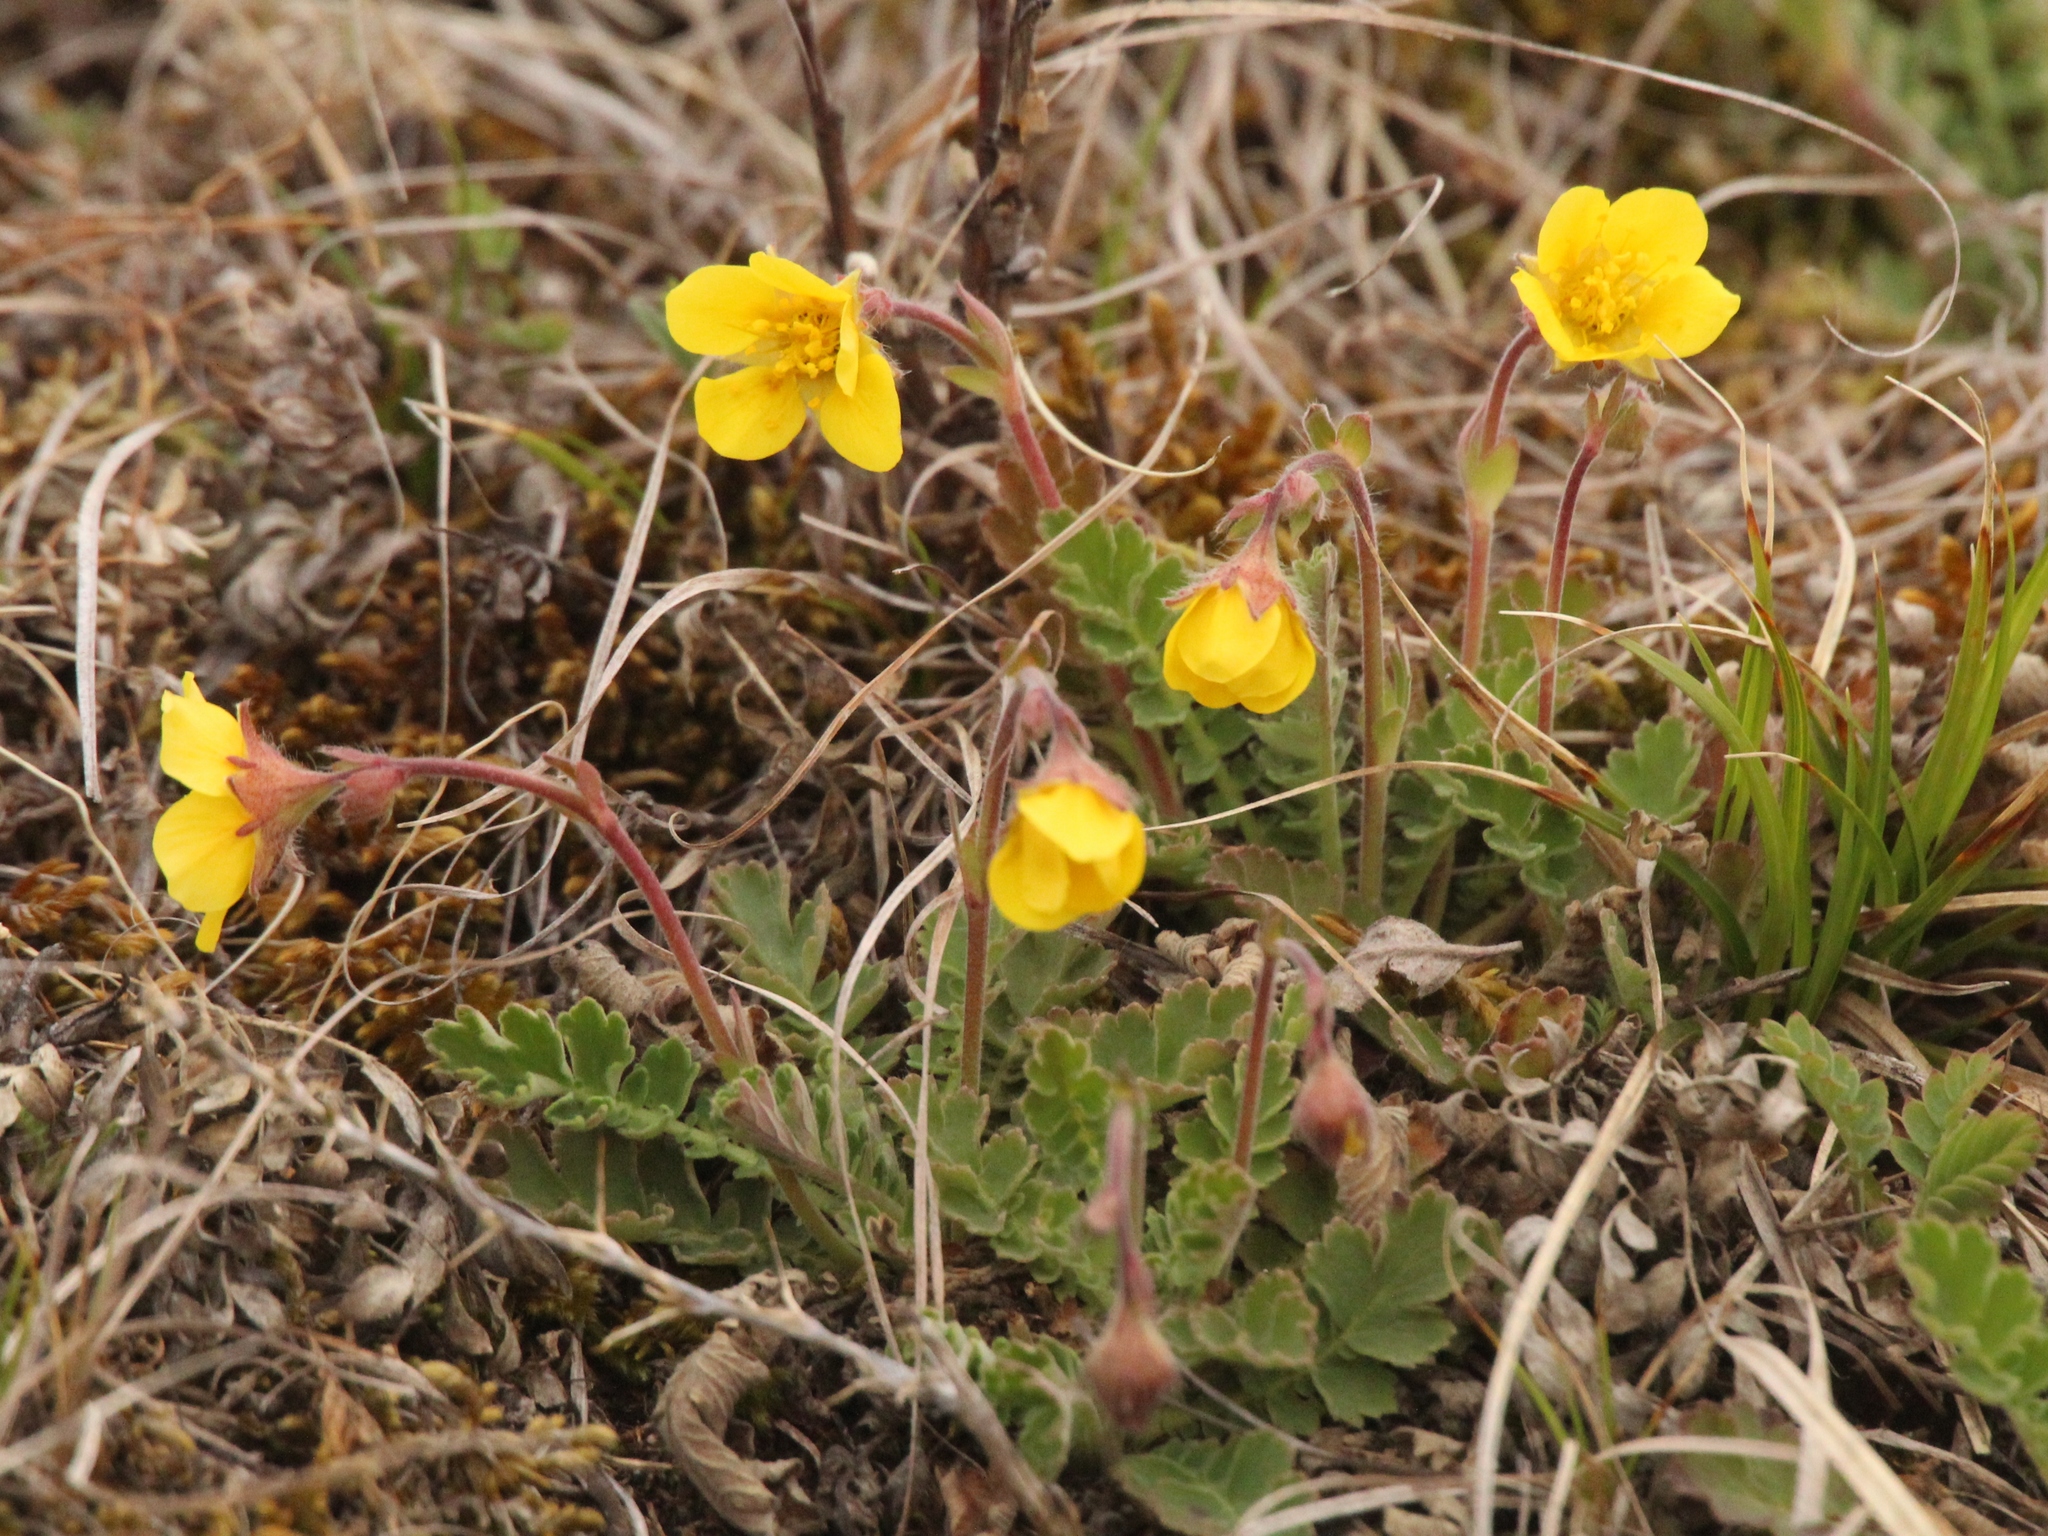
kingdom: Plantae
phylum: Tracheophyta
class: Magnoliopsida
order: Rosales
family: Rosaceae
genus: Geum
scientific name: Geum geoides
